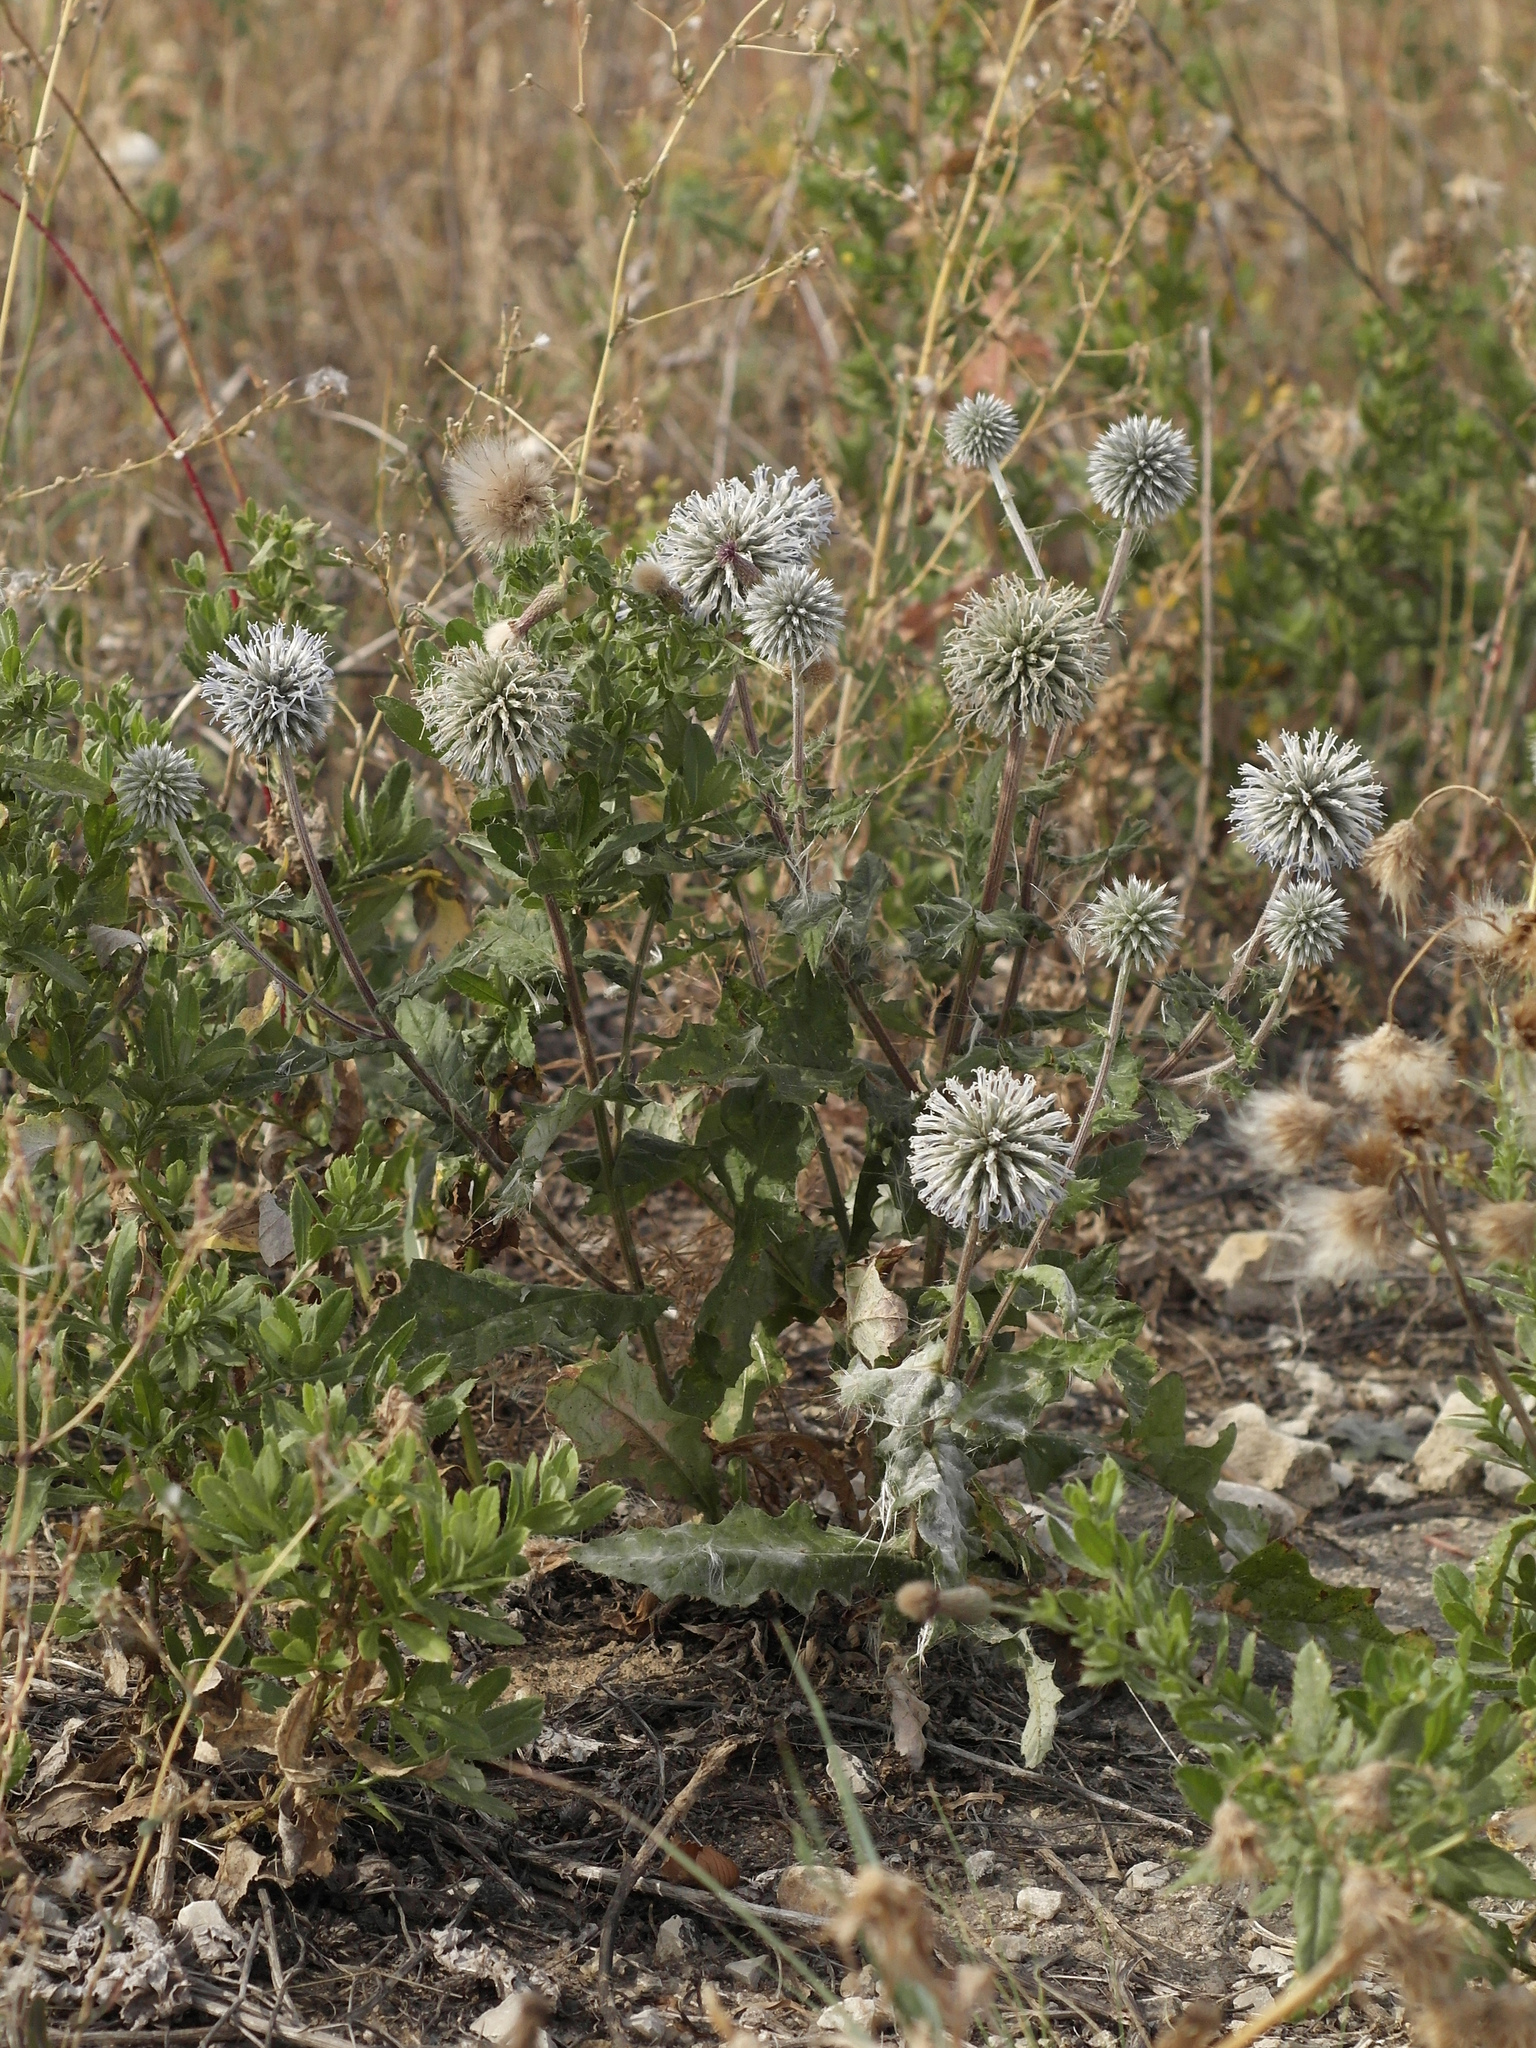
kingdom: Plantae
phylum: Tracheophyta
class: Magnoliopsida
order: Asterales
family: Asteraceae
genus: Echinops
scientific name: Echinops sphaerocephalus
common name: Glandular globe-thistle
